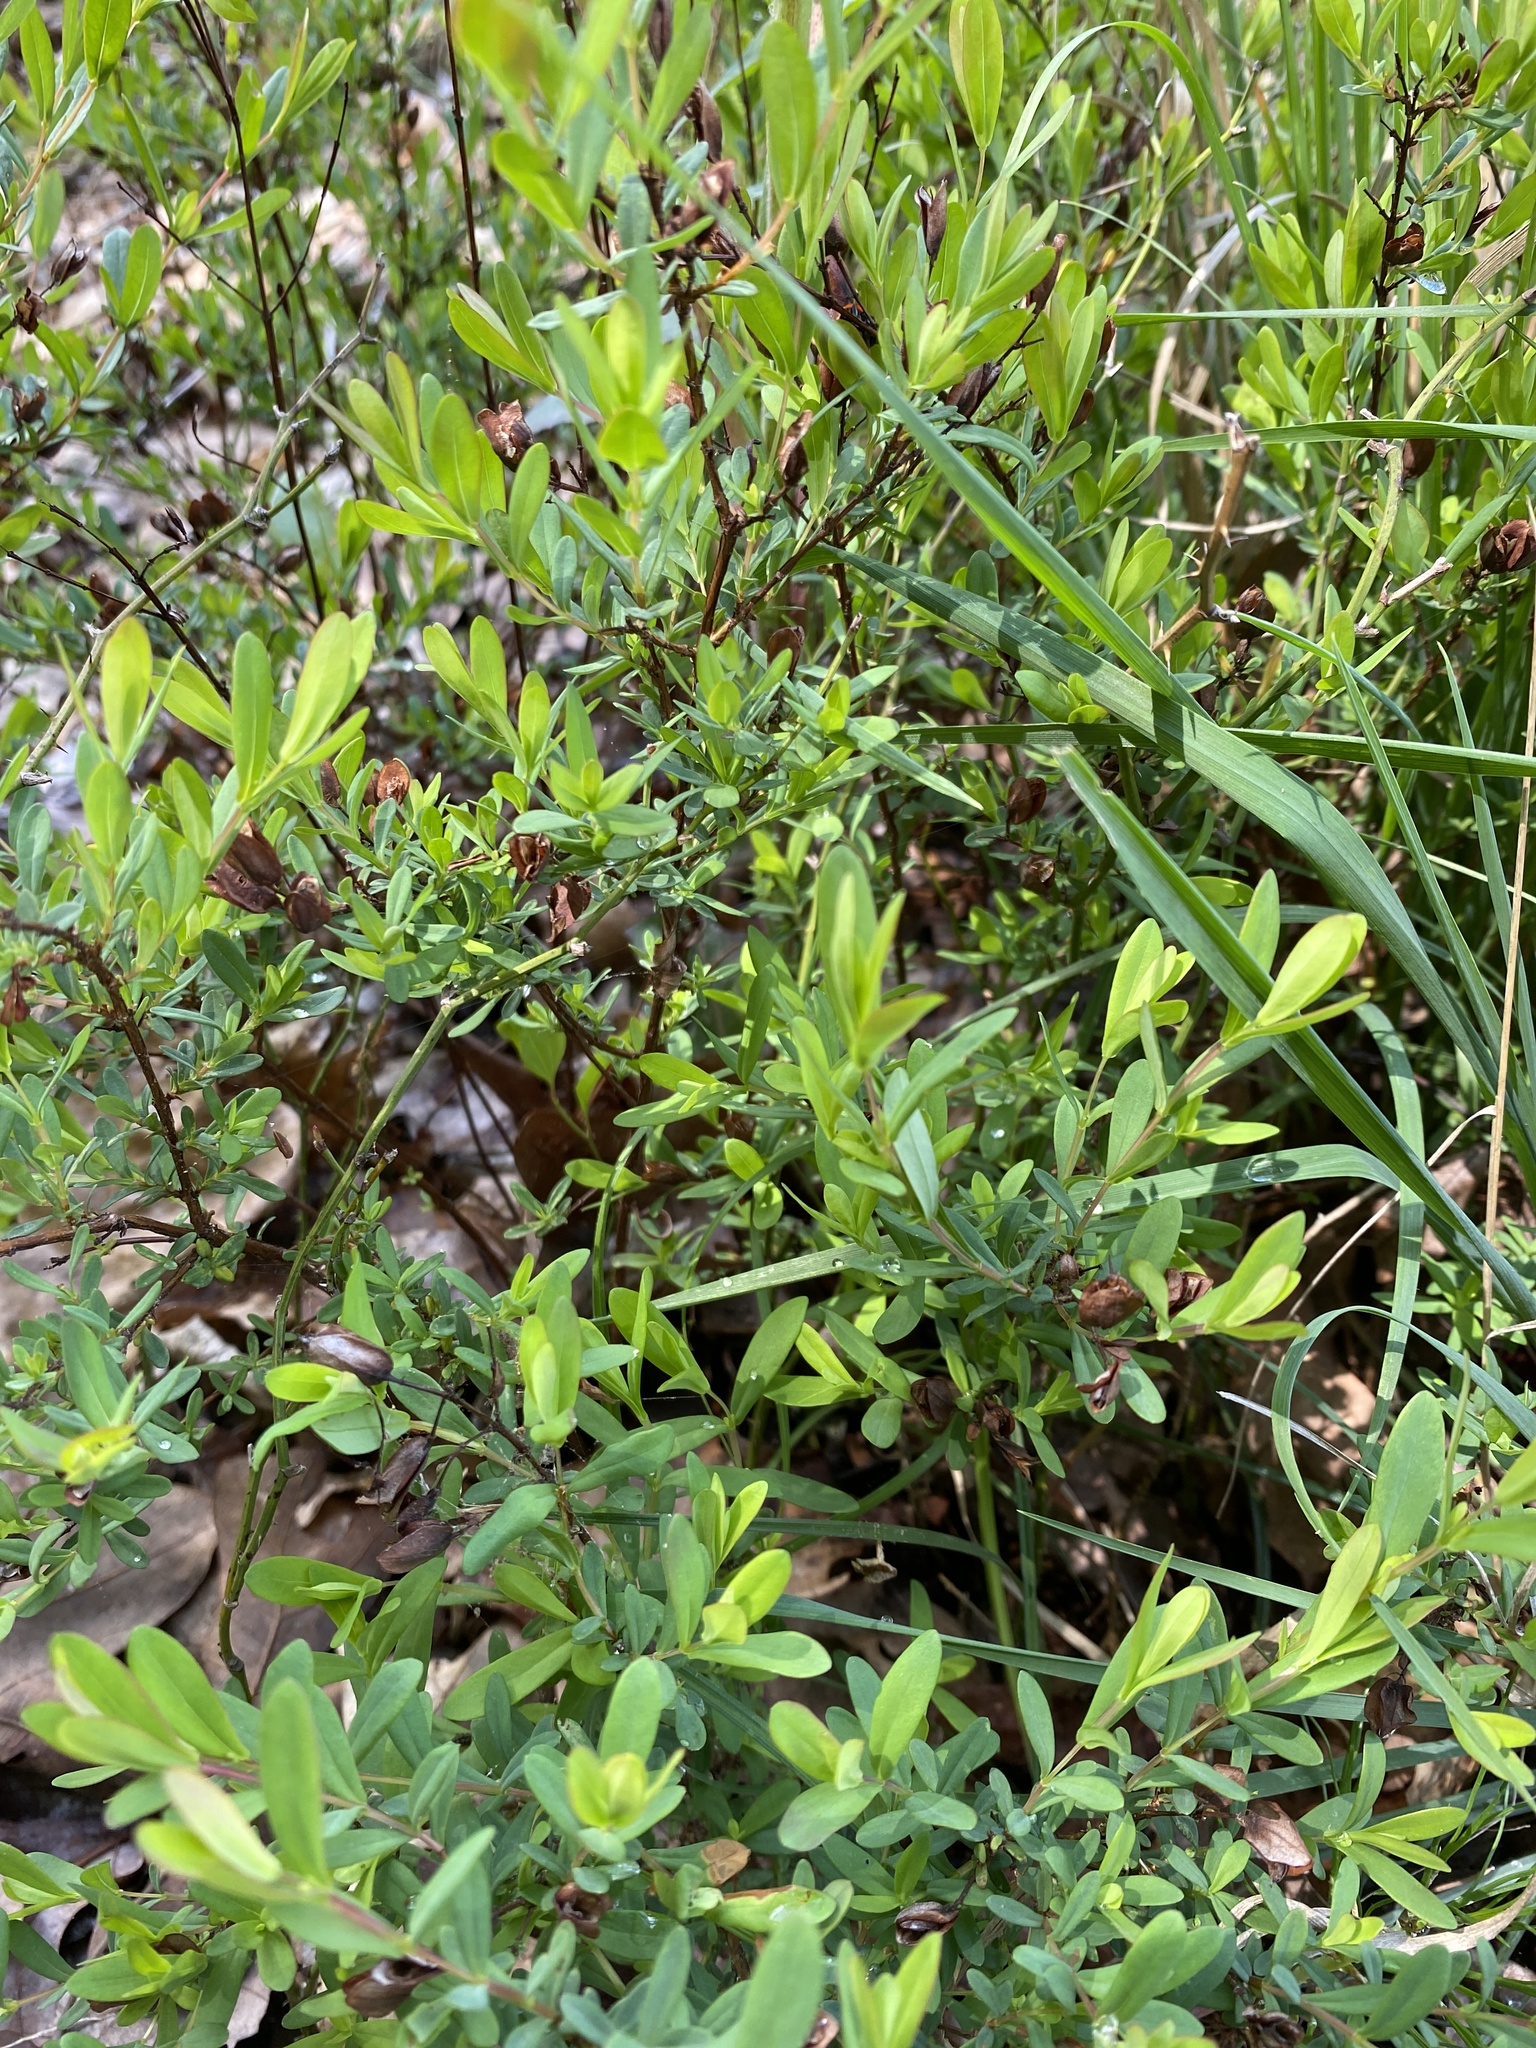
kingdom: Plantae
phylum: Tracheophyta
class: Magnoliopsida
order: Malpighiales
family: Hypericaceae
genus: Hypericum
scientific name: Hypericum hypericoides
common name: St. andrew's cross
